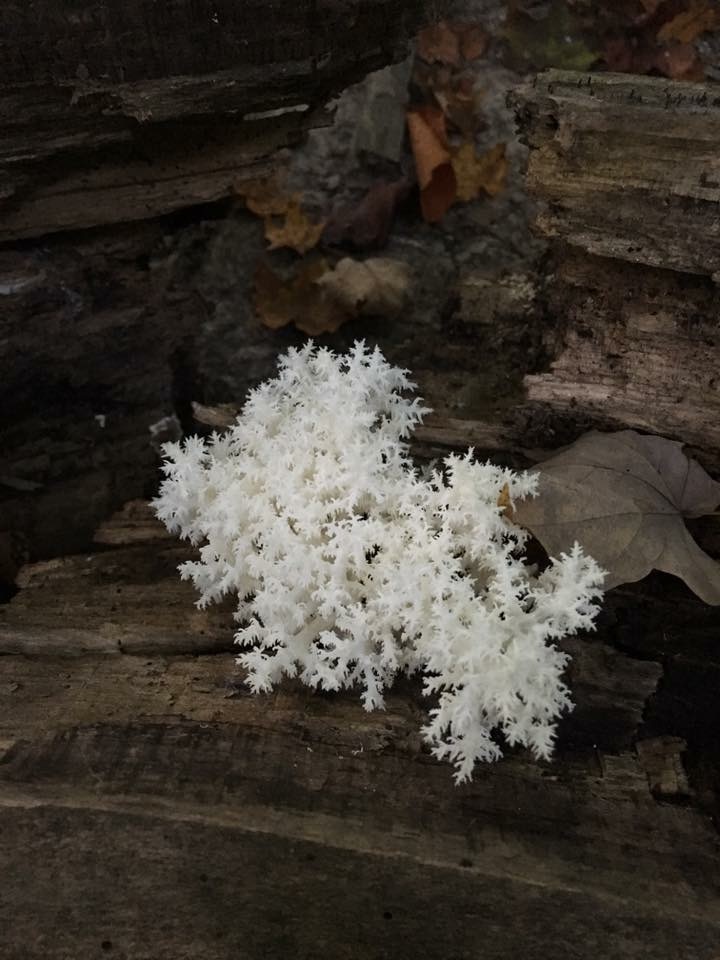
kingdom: Fungi
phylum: Basidiomycota
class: Agaricomycetes
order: Russulales
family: Hericiaceae
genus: Hericium
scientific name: Hericium coralloides
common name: Coral tooth
